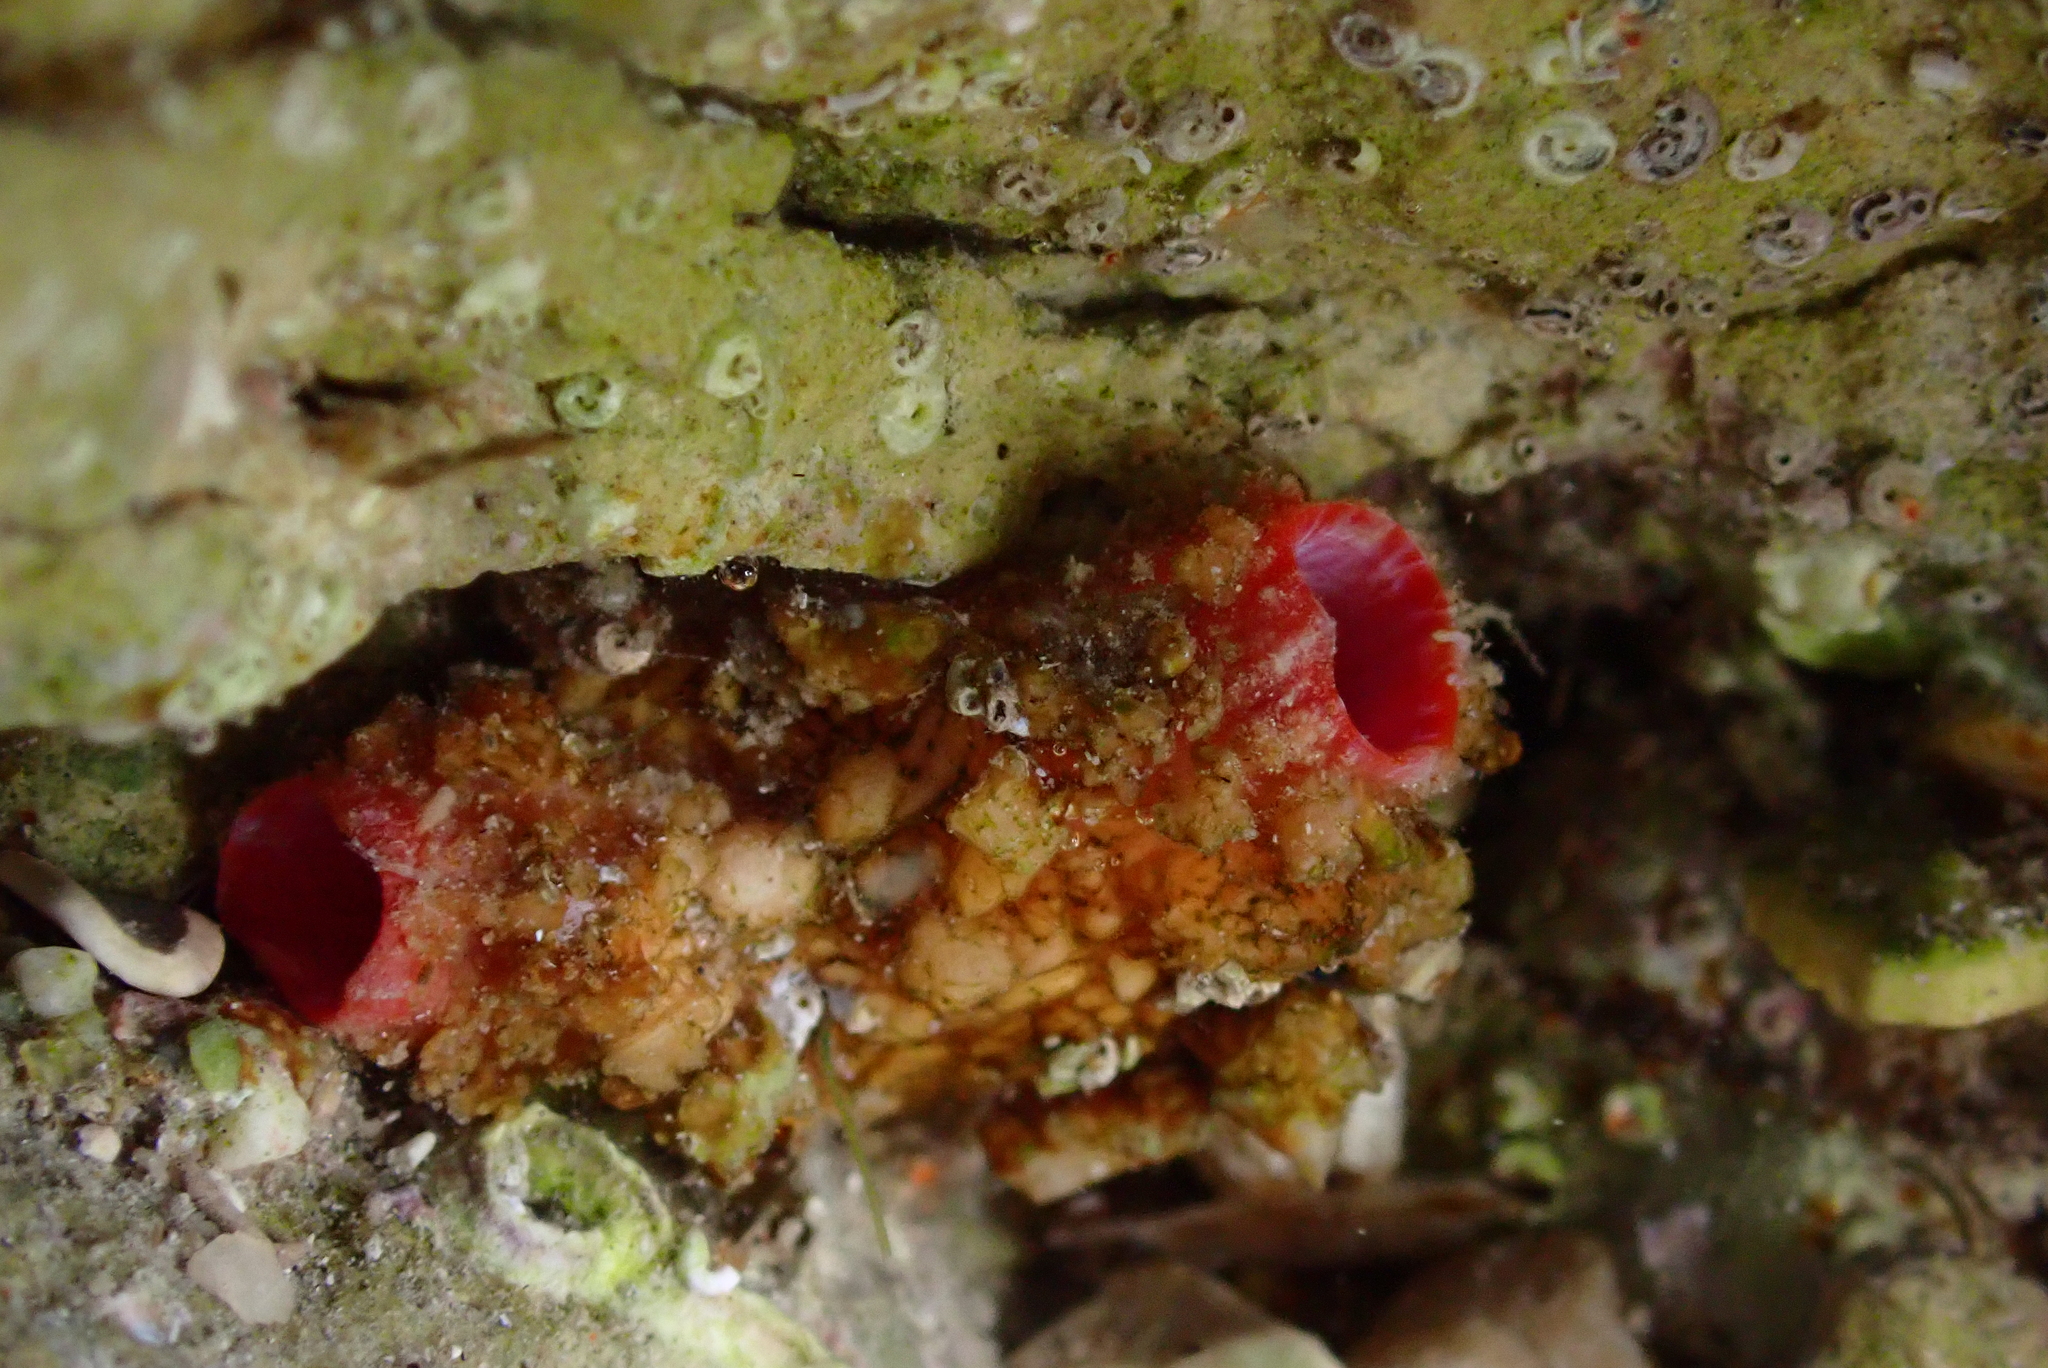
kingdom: Animalia
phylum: Chordata
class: Ascidiacea
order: Stolidobranchia
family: Pyuridae
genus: Pyura
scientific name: Pyura dura
